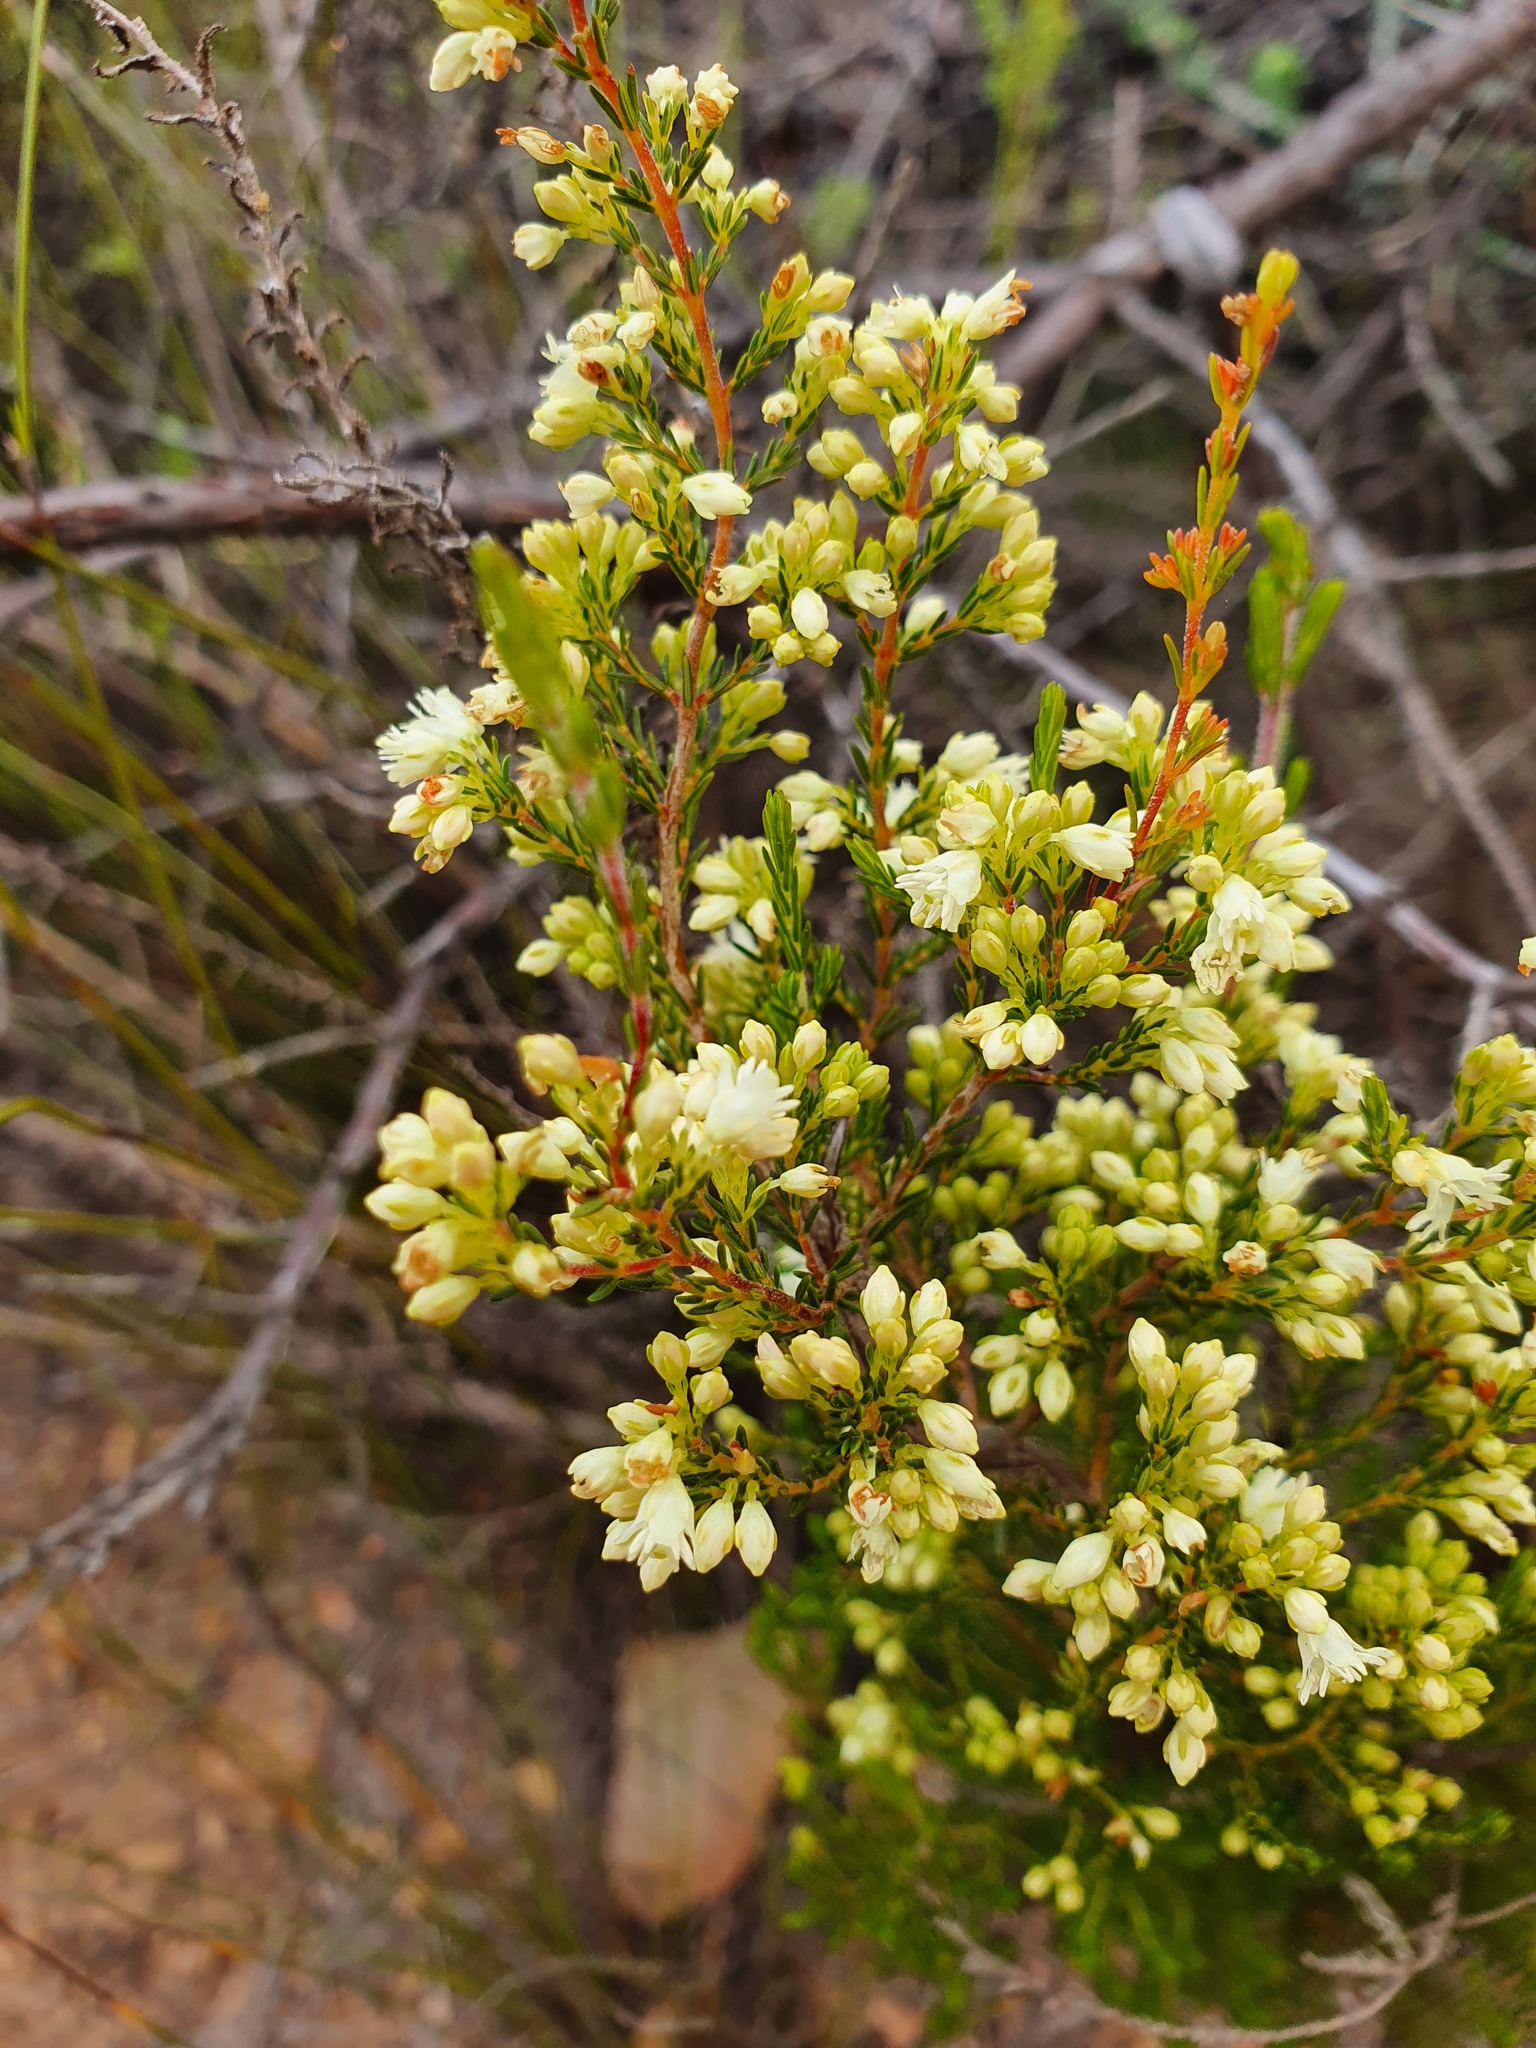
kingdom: Plantae
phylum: Tracheophyta
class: Magnoliopsida
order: Ericales
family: Ericaceae
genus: Erica
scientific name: Erica leucanthera
